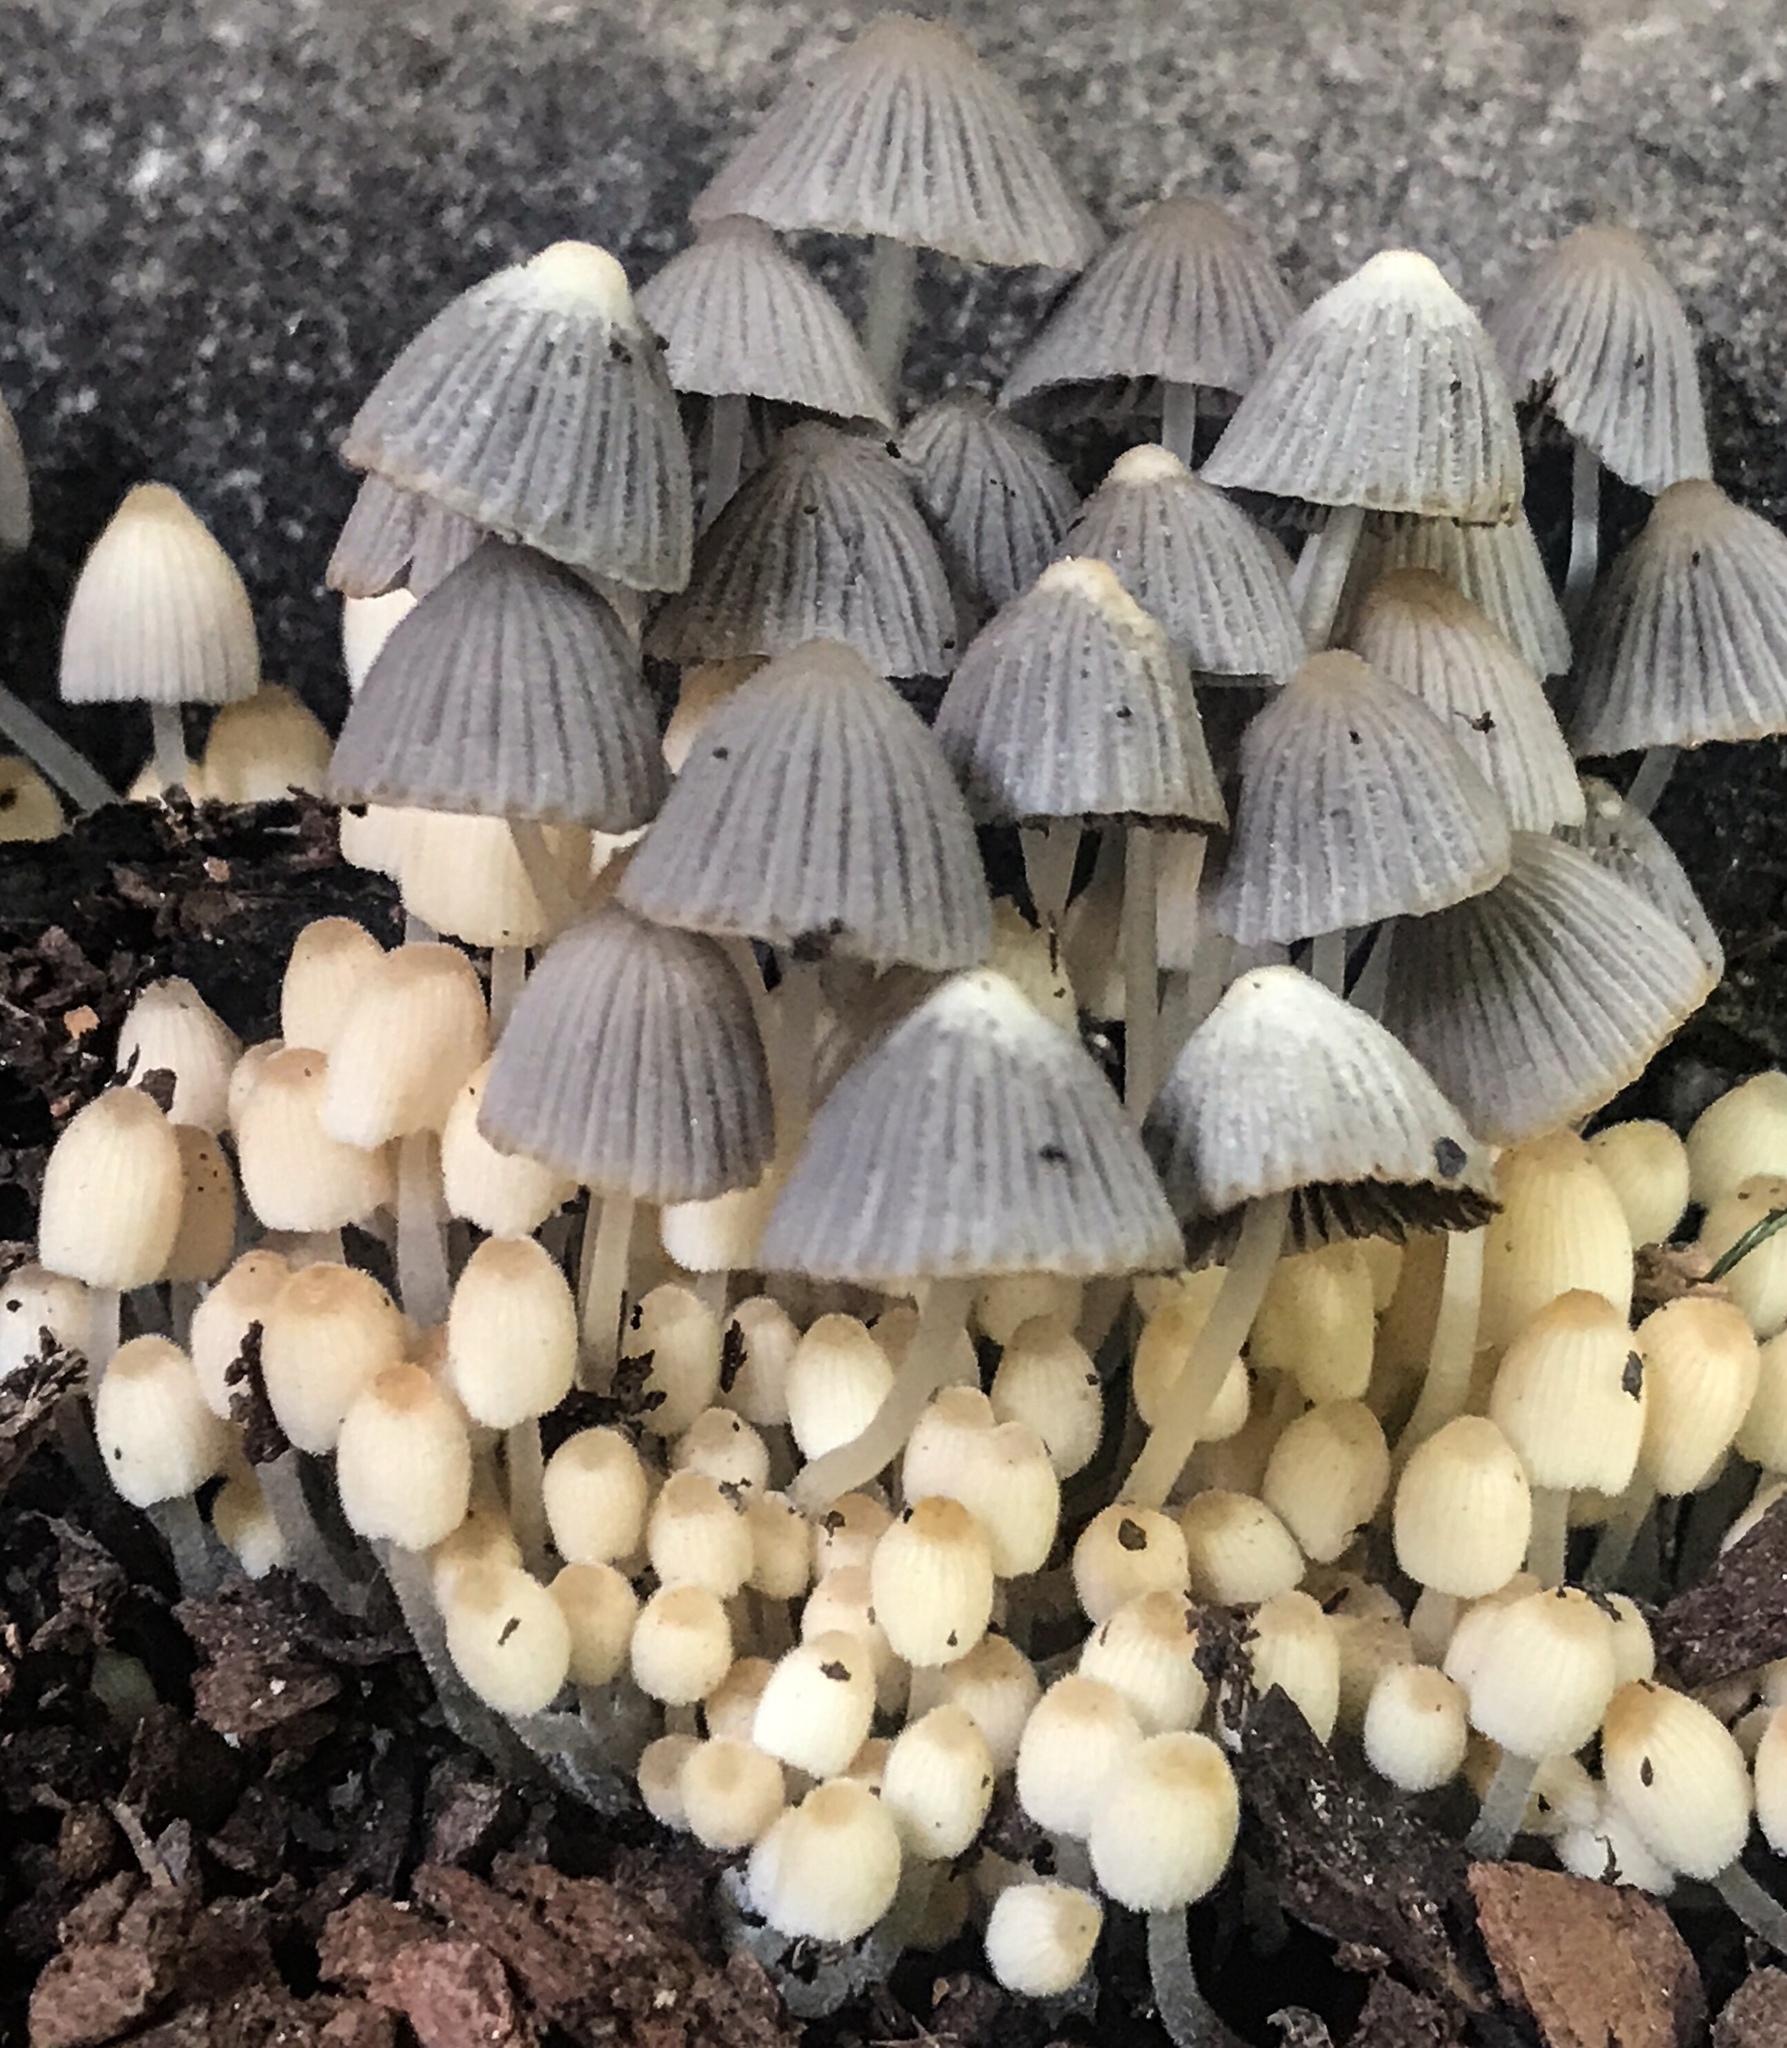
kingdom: Fungi
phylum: Basidiomycota
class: Agaricomycetes
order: Agaricales
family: Psathyrellaceae
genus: Coprinellus
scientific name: Coprinellus disseminatus
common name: Fairies' bonnets
